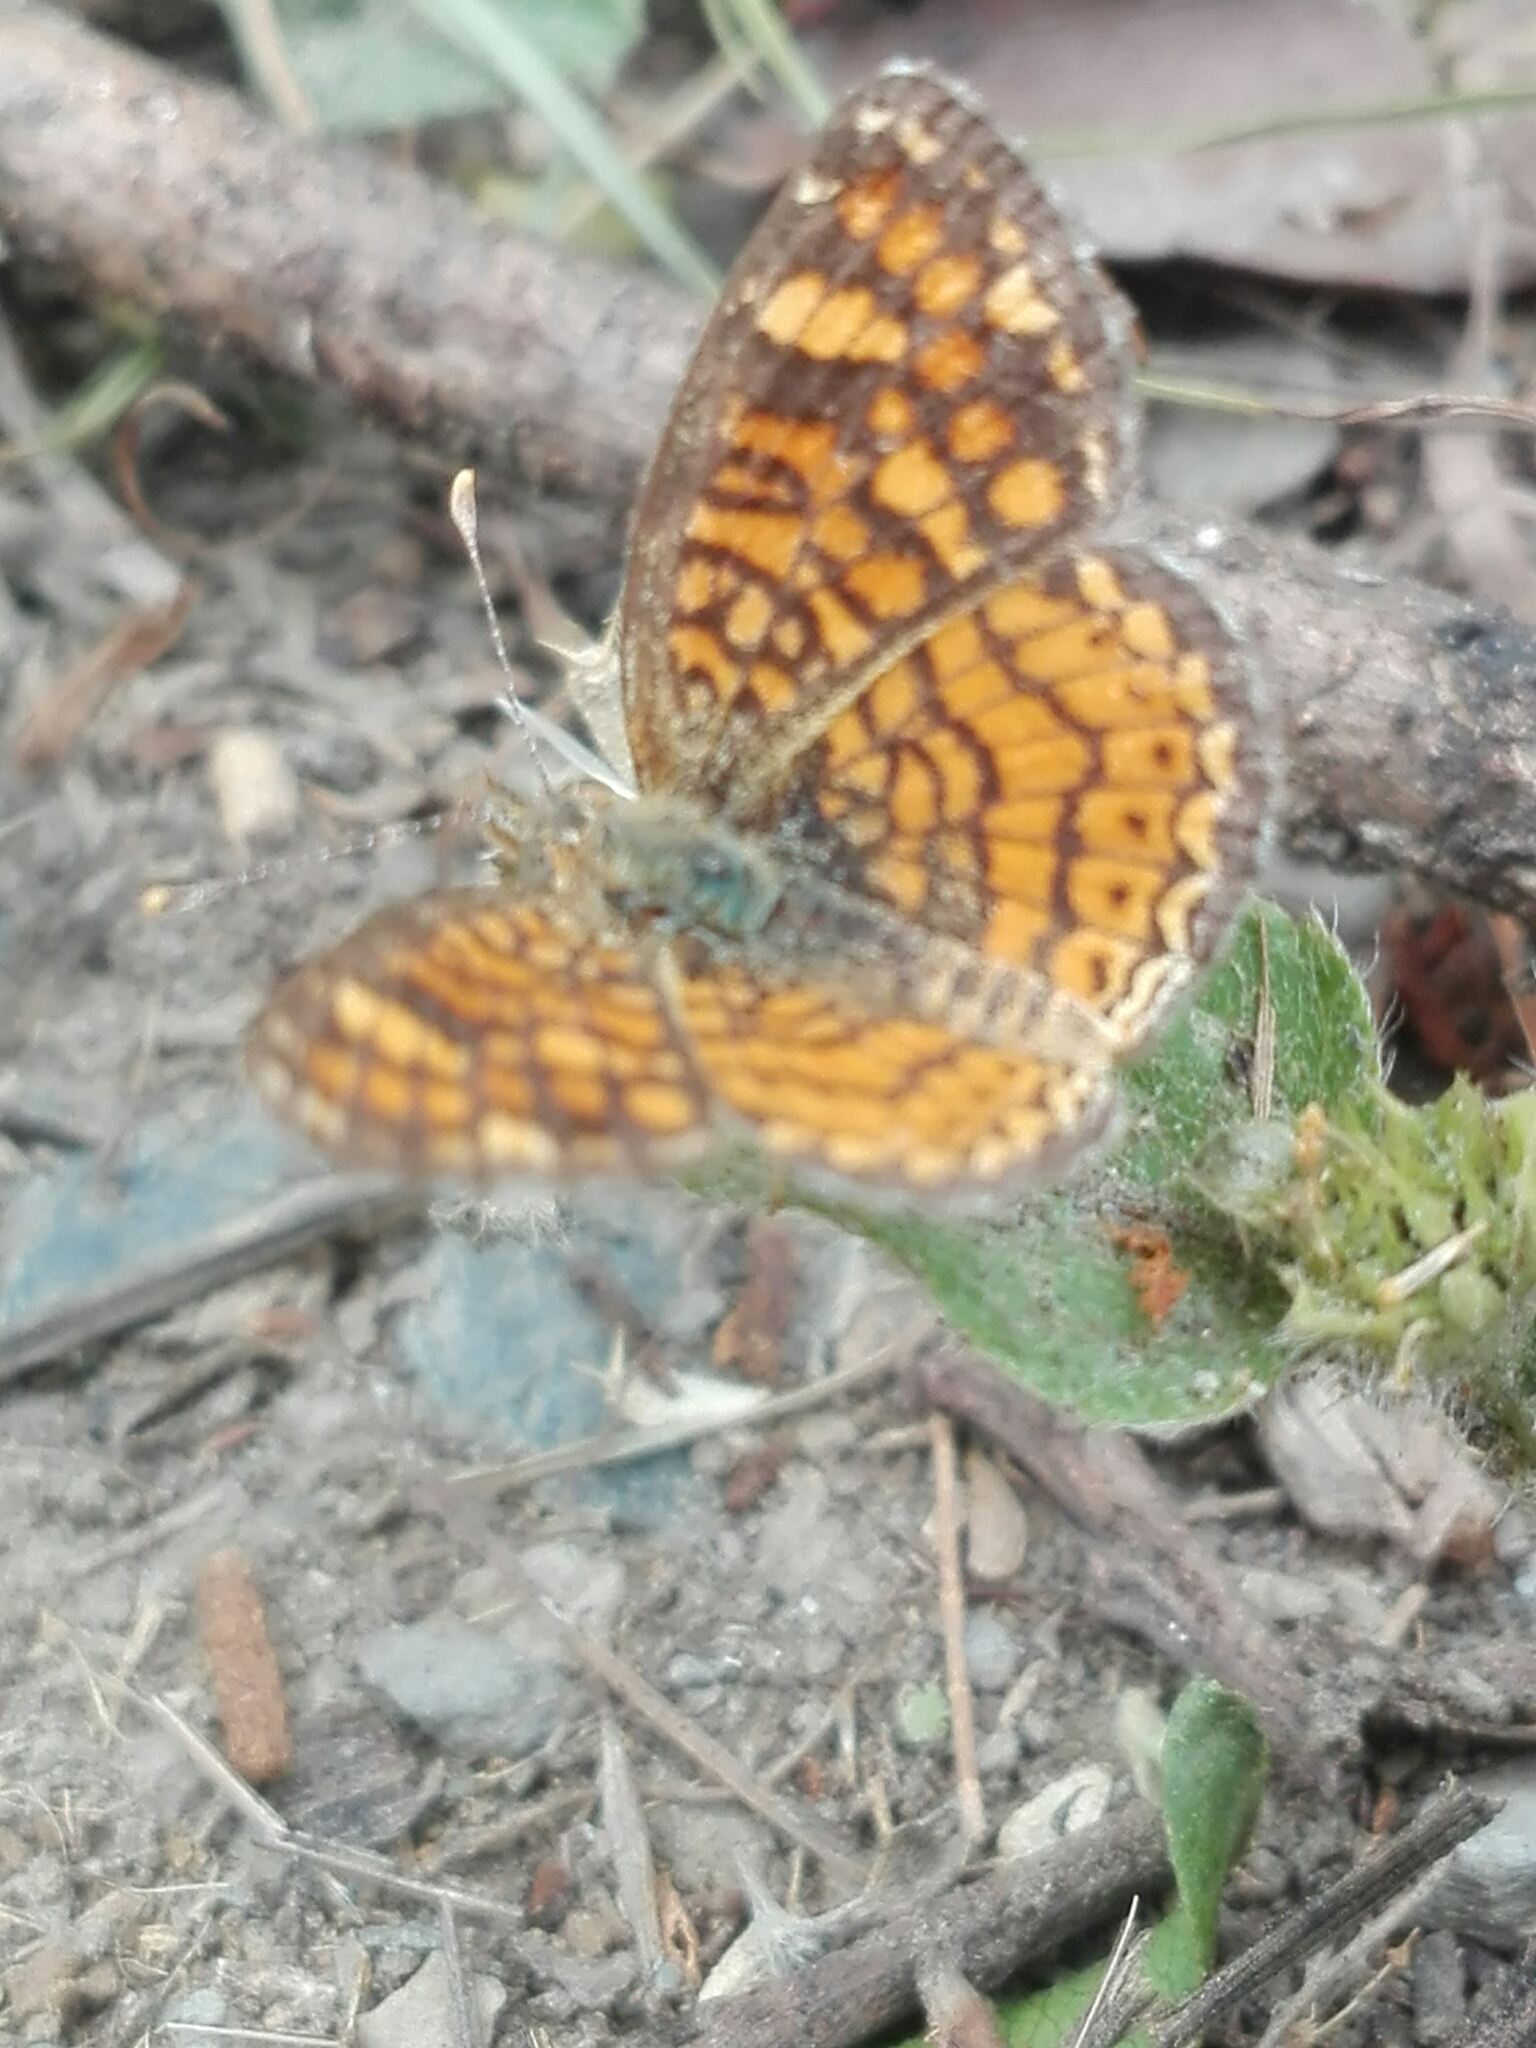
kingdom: Animalia
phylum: Arthropoda
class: Insecta
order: Lepidoptera
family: Nymphalidae
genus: Phyciodes
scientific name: Phyciodes vesta
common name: Vesta crescent
